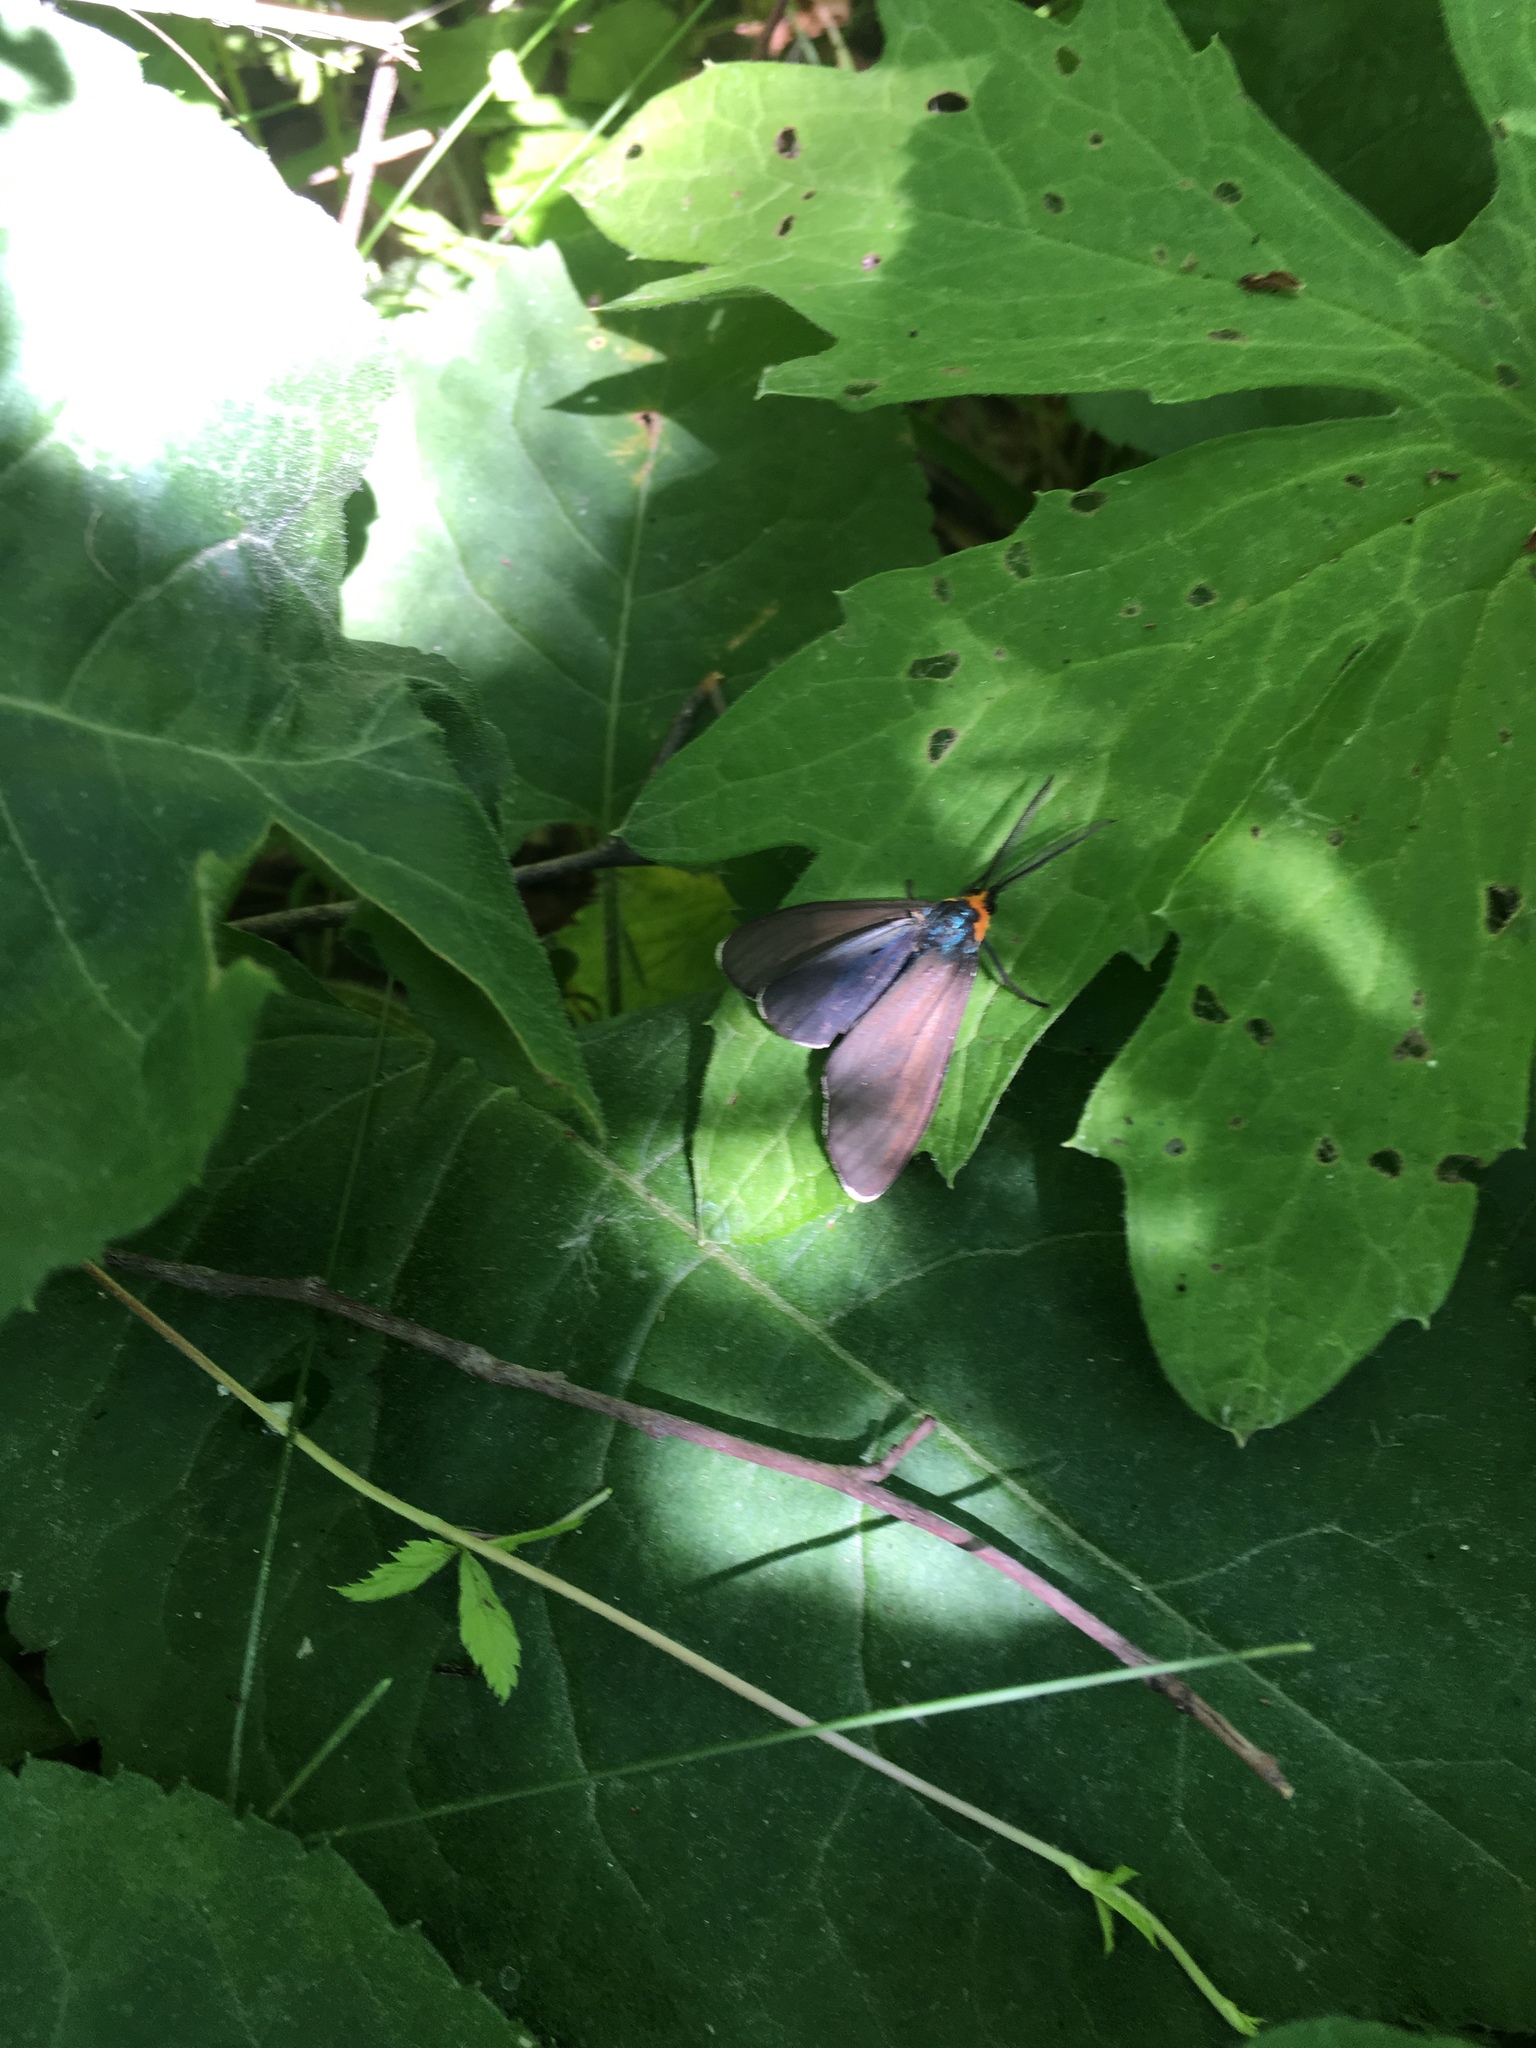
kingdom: Animalia
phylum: Arthropoda
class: Insecta
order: Lepidoptera
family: Erebidae
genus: Ctenucha
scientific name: Ctenucha virginica
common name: Virginia ctenucha moth
